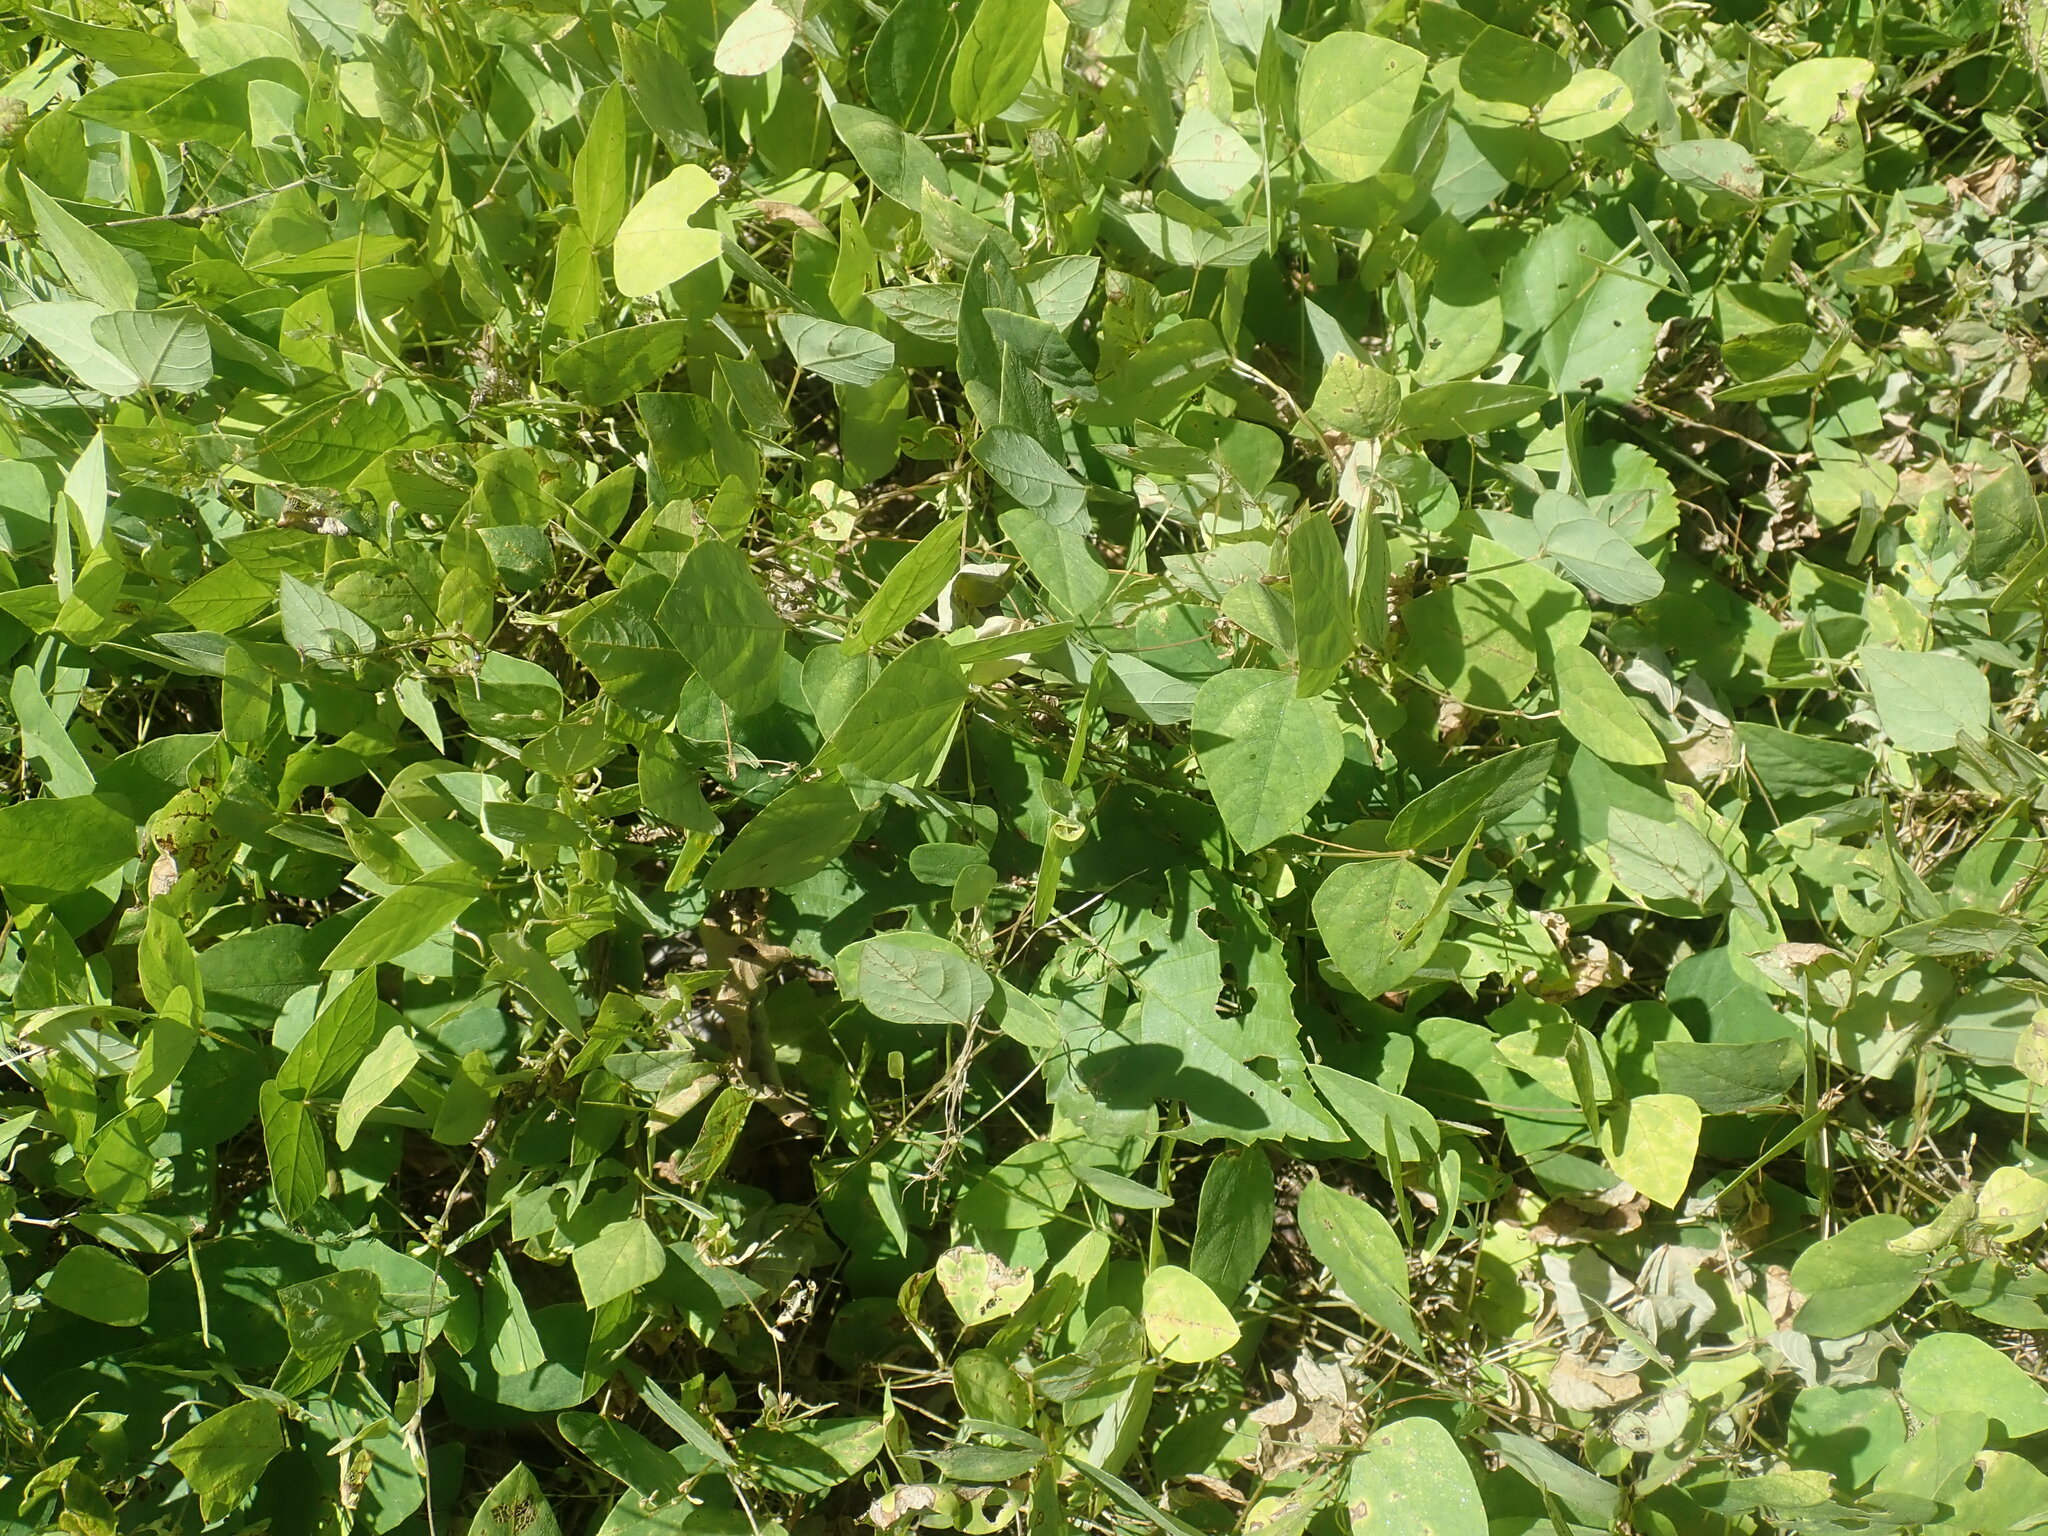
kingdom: Plantae
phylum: Tracheophyta
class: Magnoliopsida
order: Fabales
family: Fabaceae
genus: Amphicarpaea
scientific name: Amphicarpaea bracteata
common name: American hog peanut
